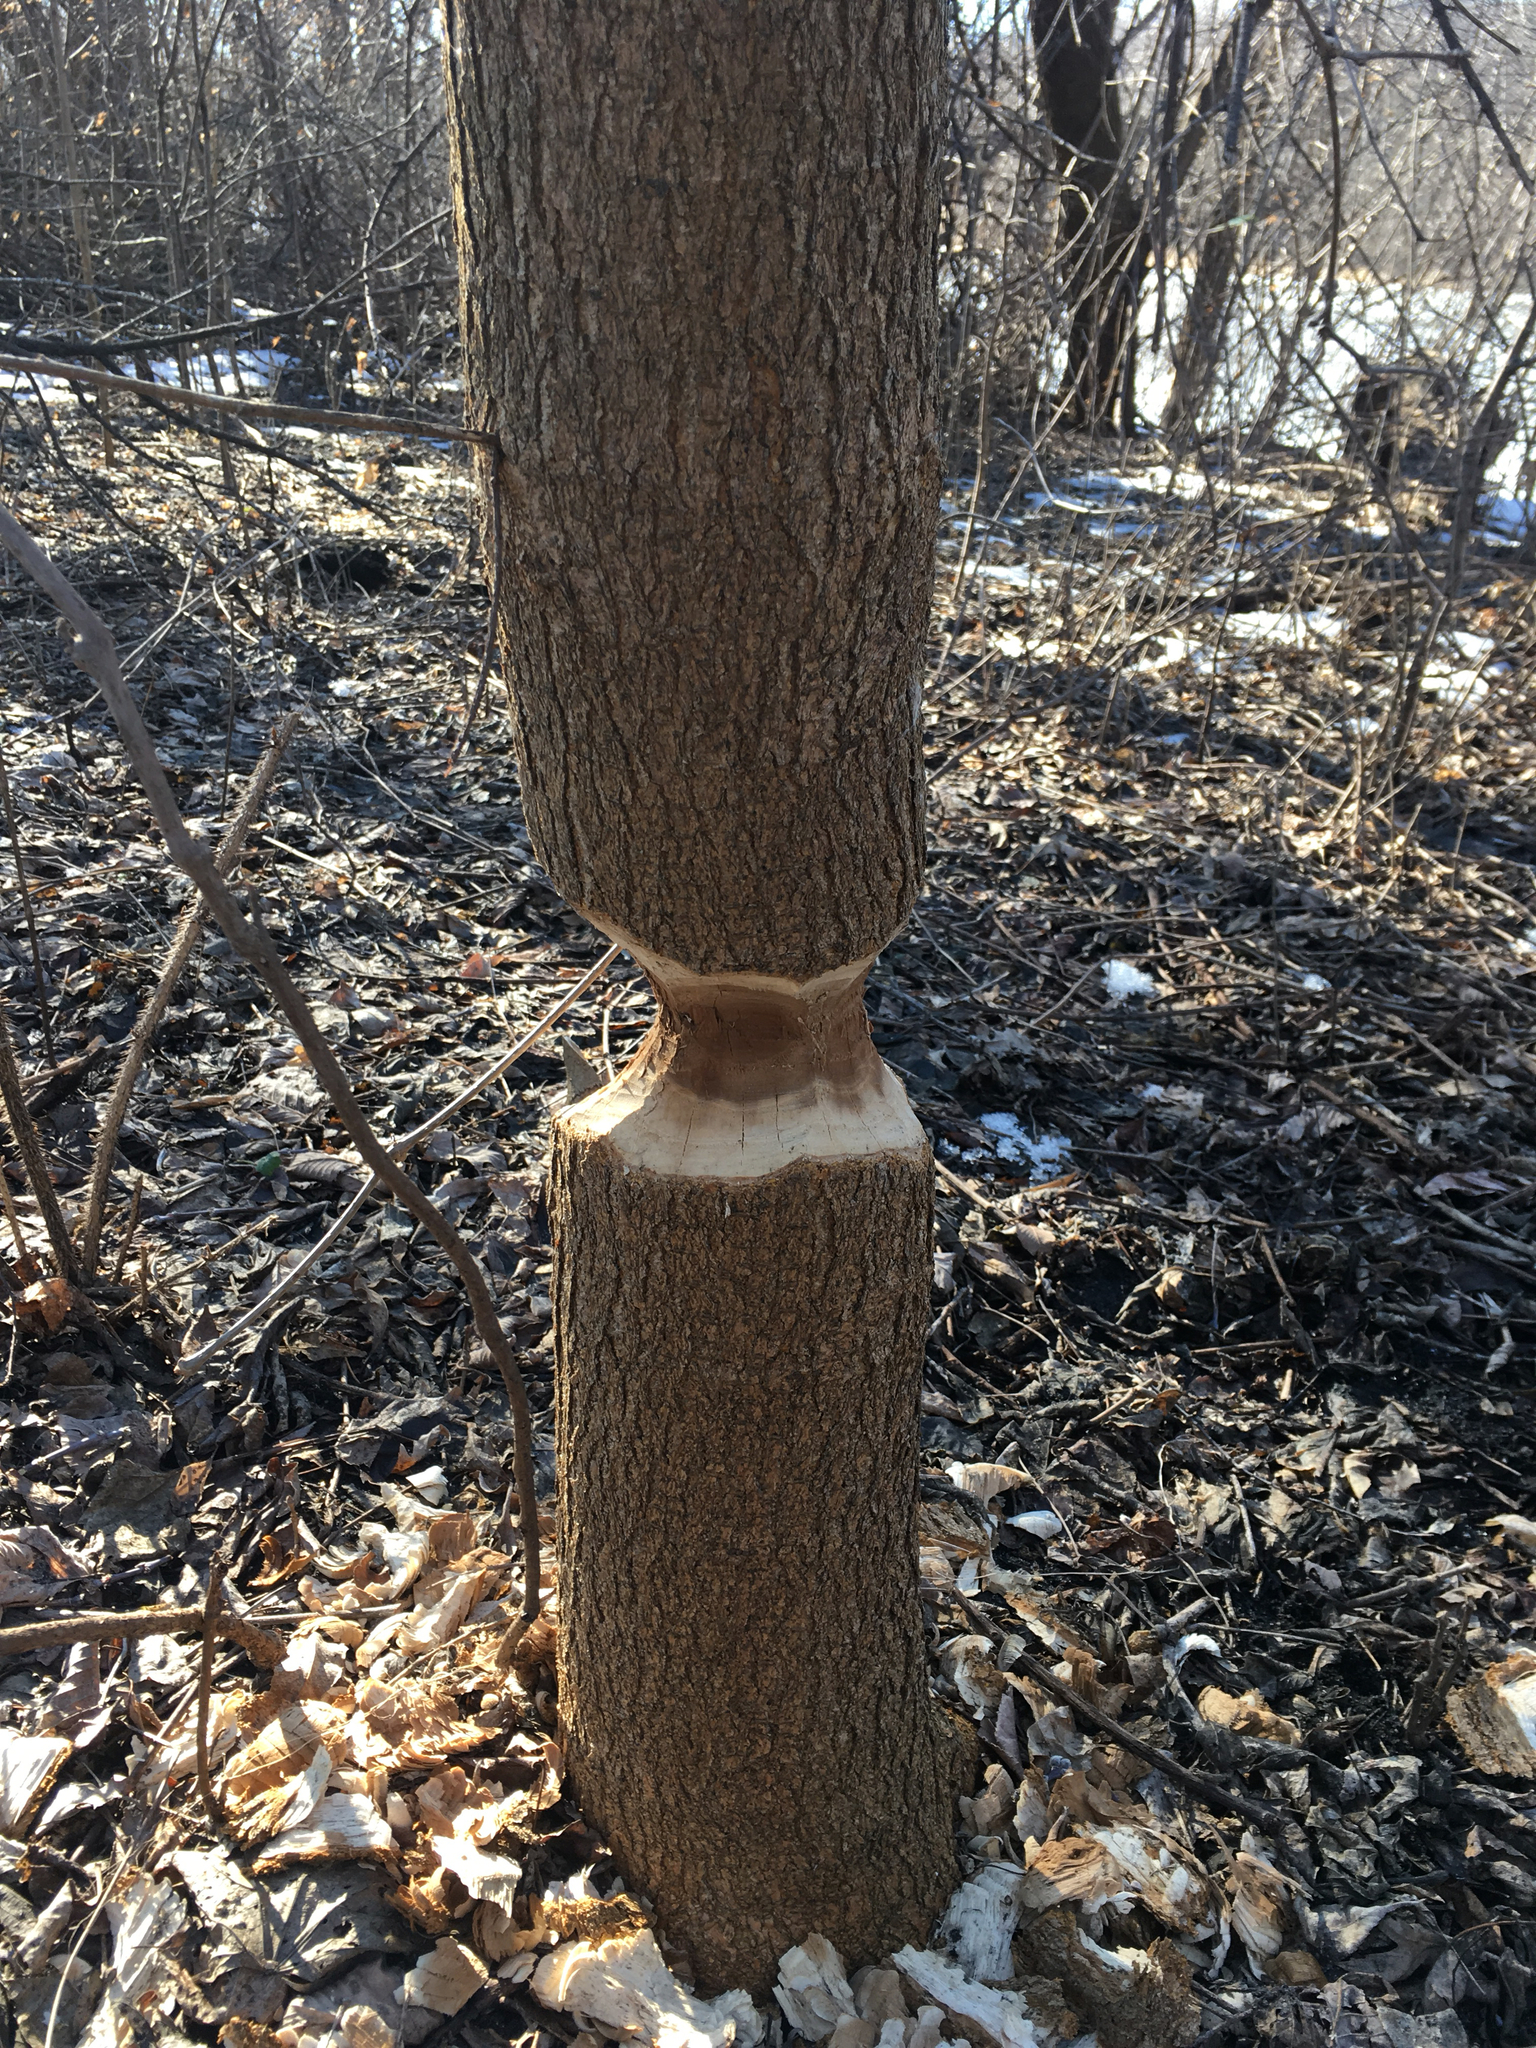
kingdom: Animalia
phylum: Chordata
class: Mammalia
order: Rodentia
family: Castoridae
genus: Castor
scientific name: Castor canadensis
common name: American beaver
